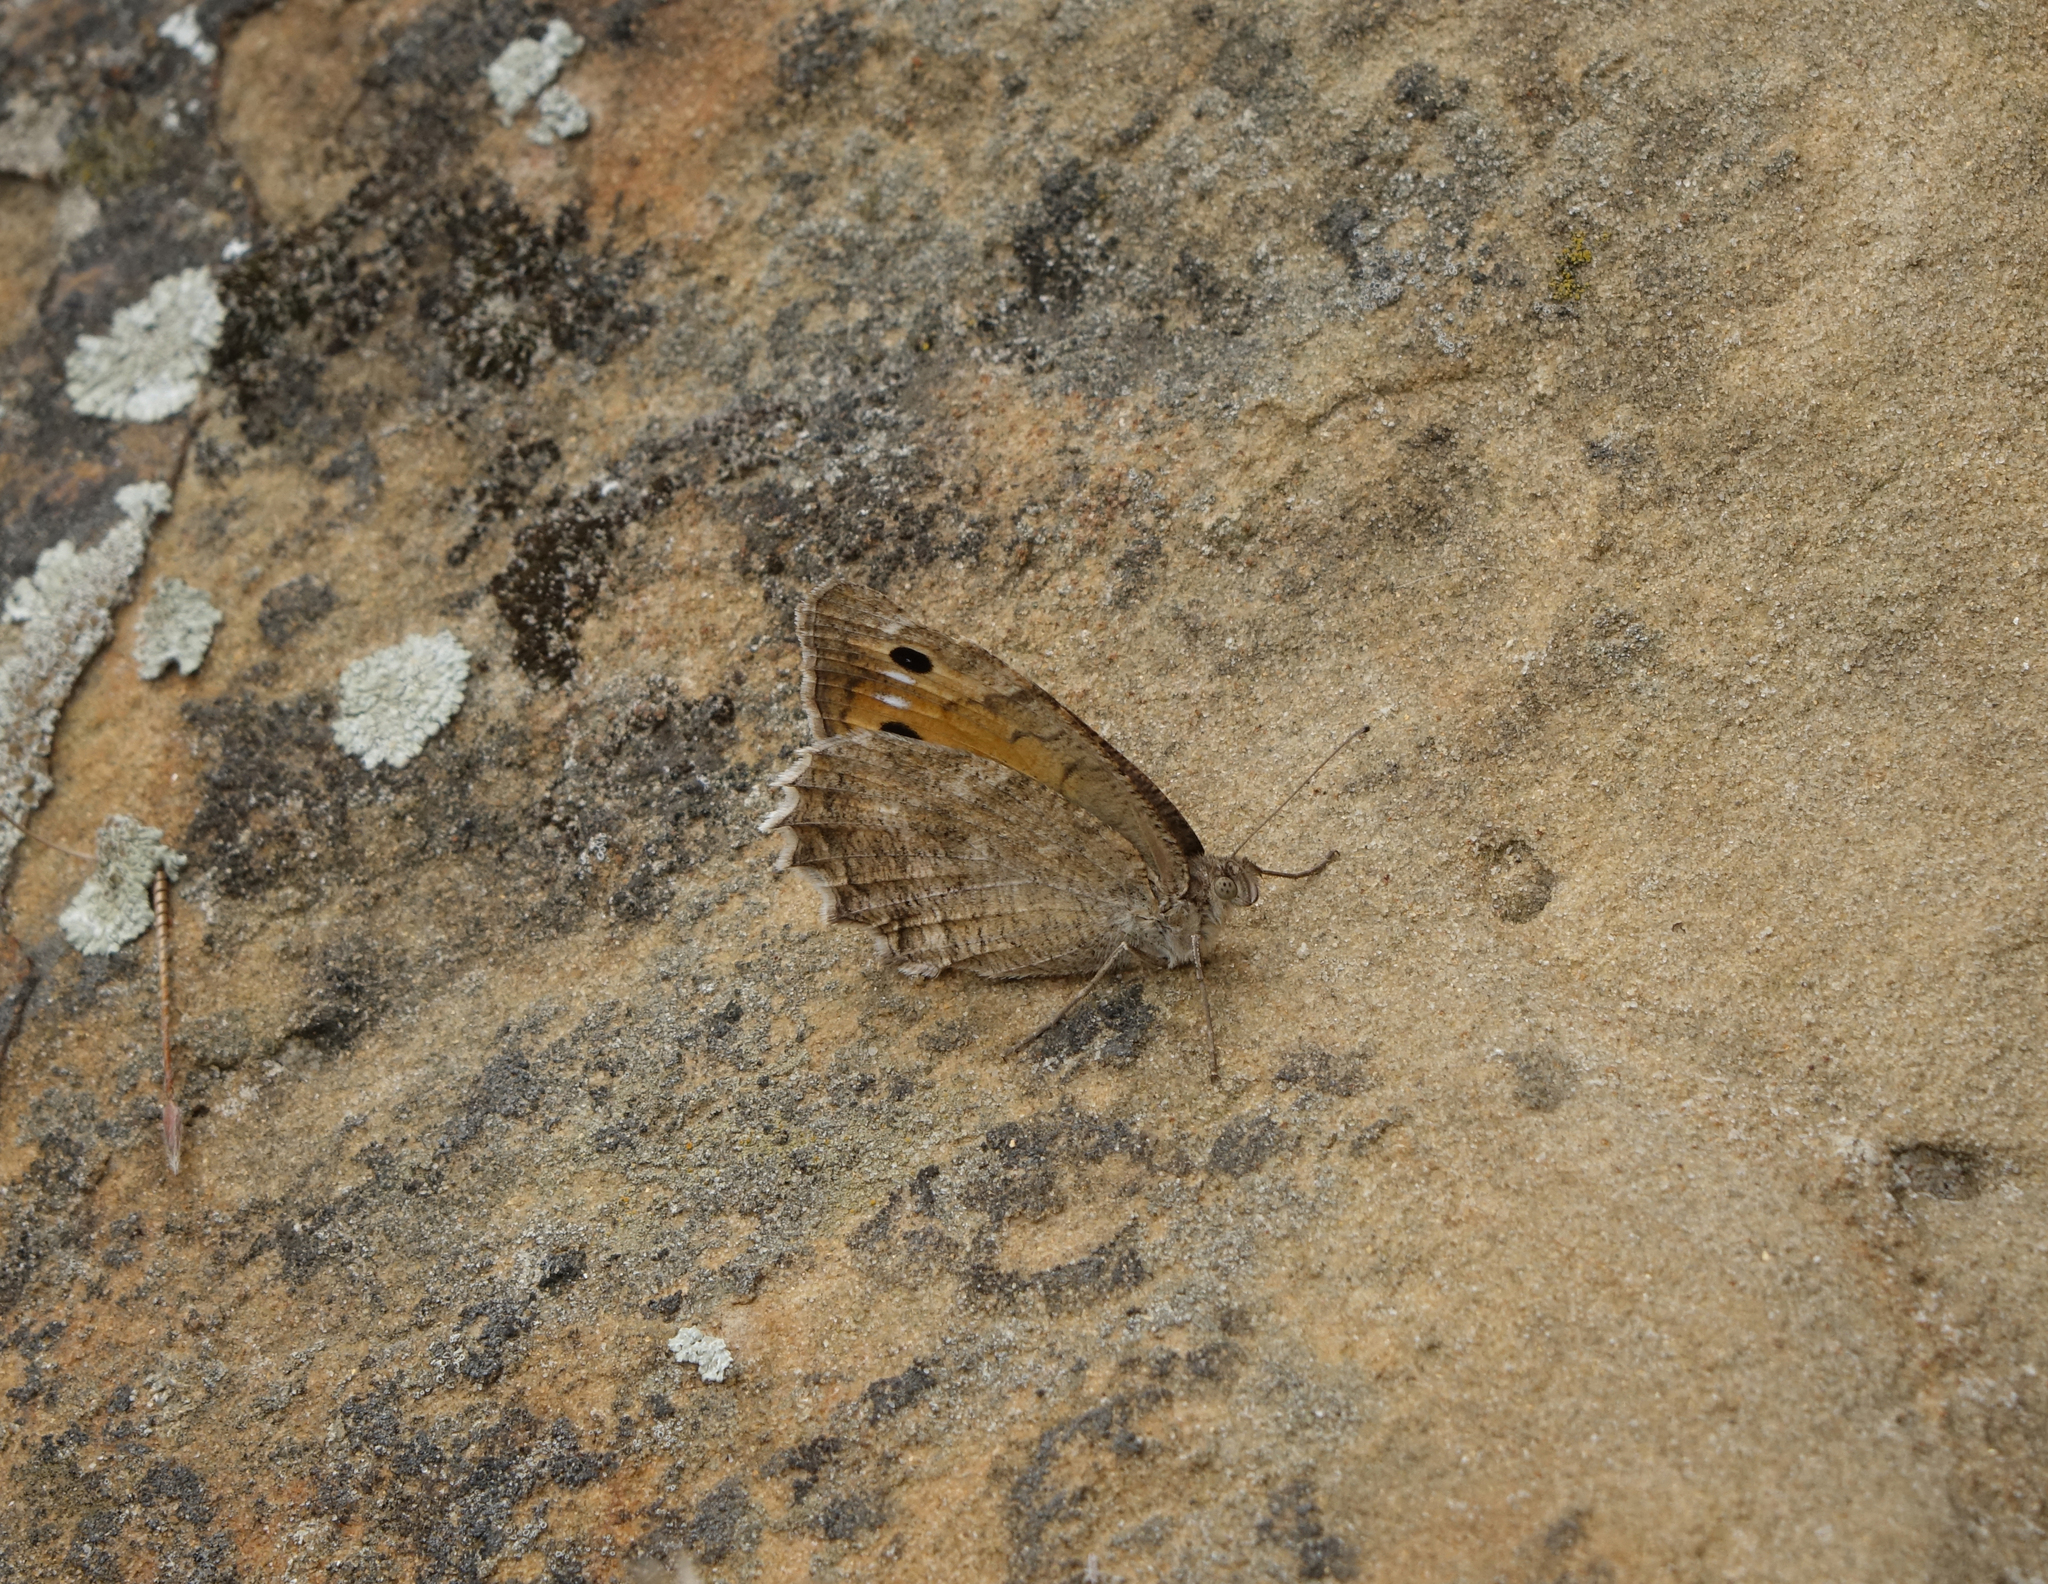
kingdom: Animalia
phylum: Arthropoda
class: Insecta
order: Lepidoptera
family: Nymphalidae
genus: Pseudochazara
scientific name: Pseudochazara pelopea
